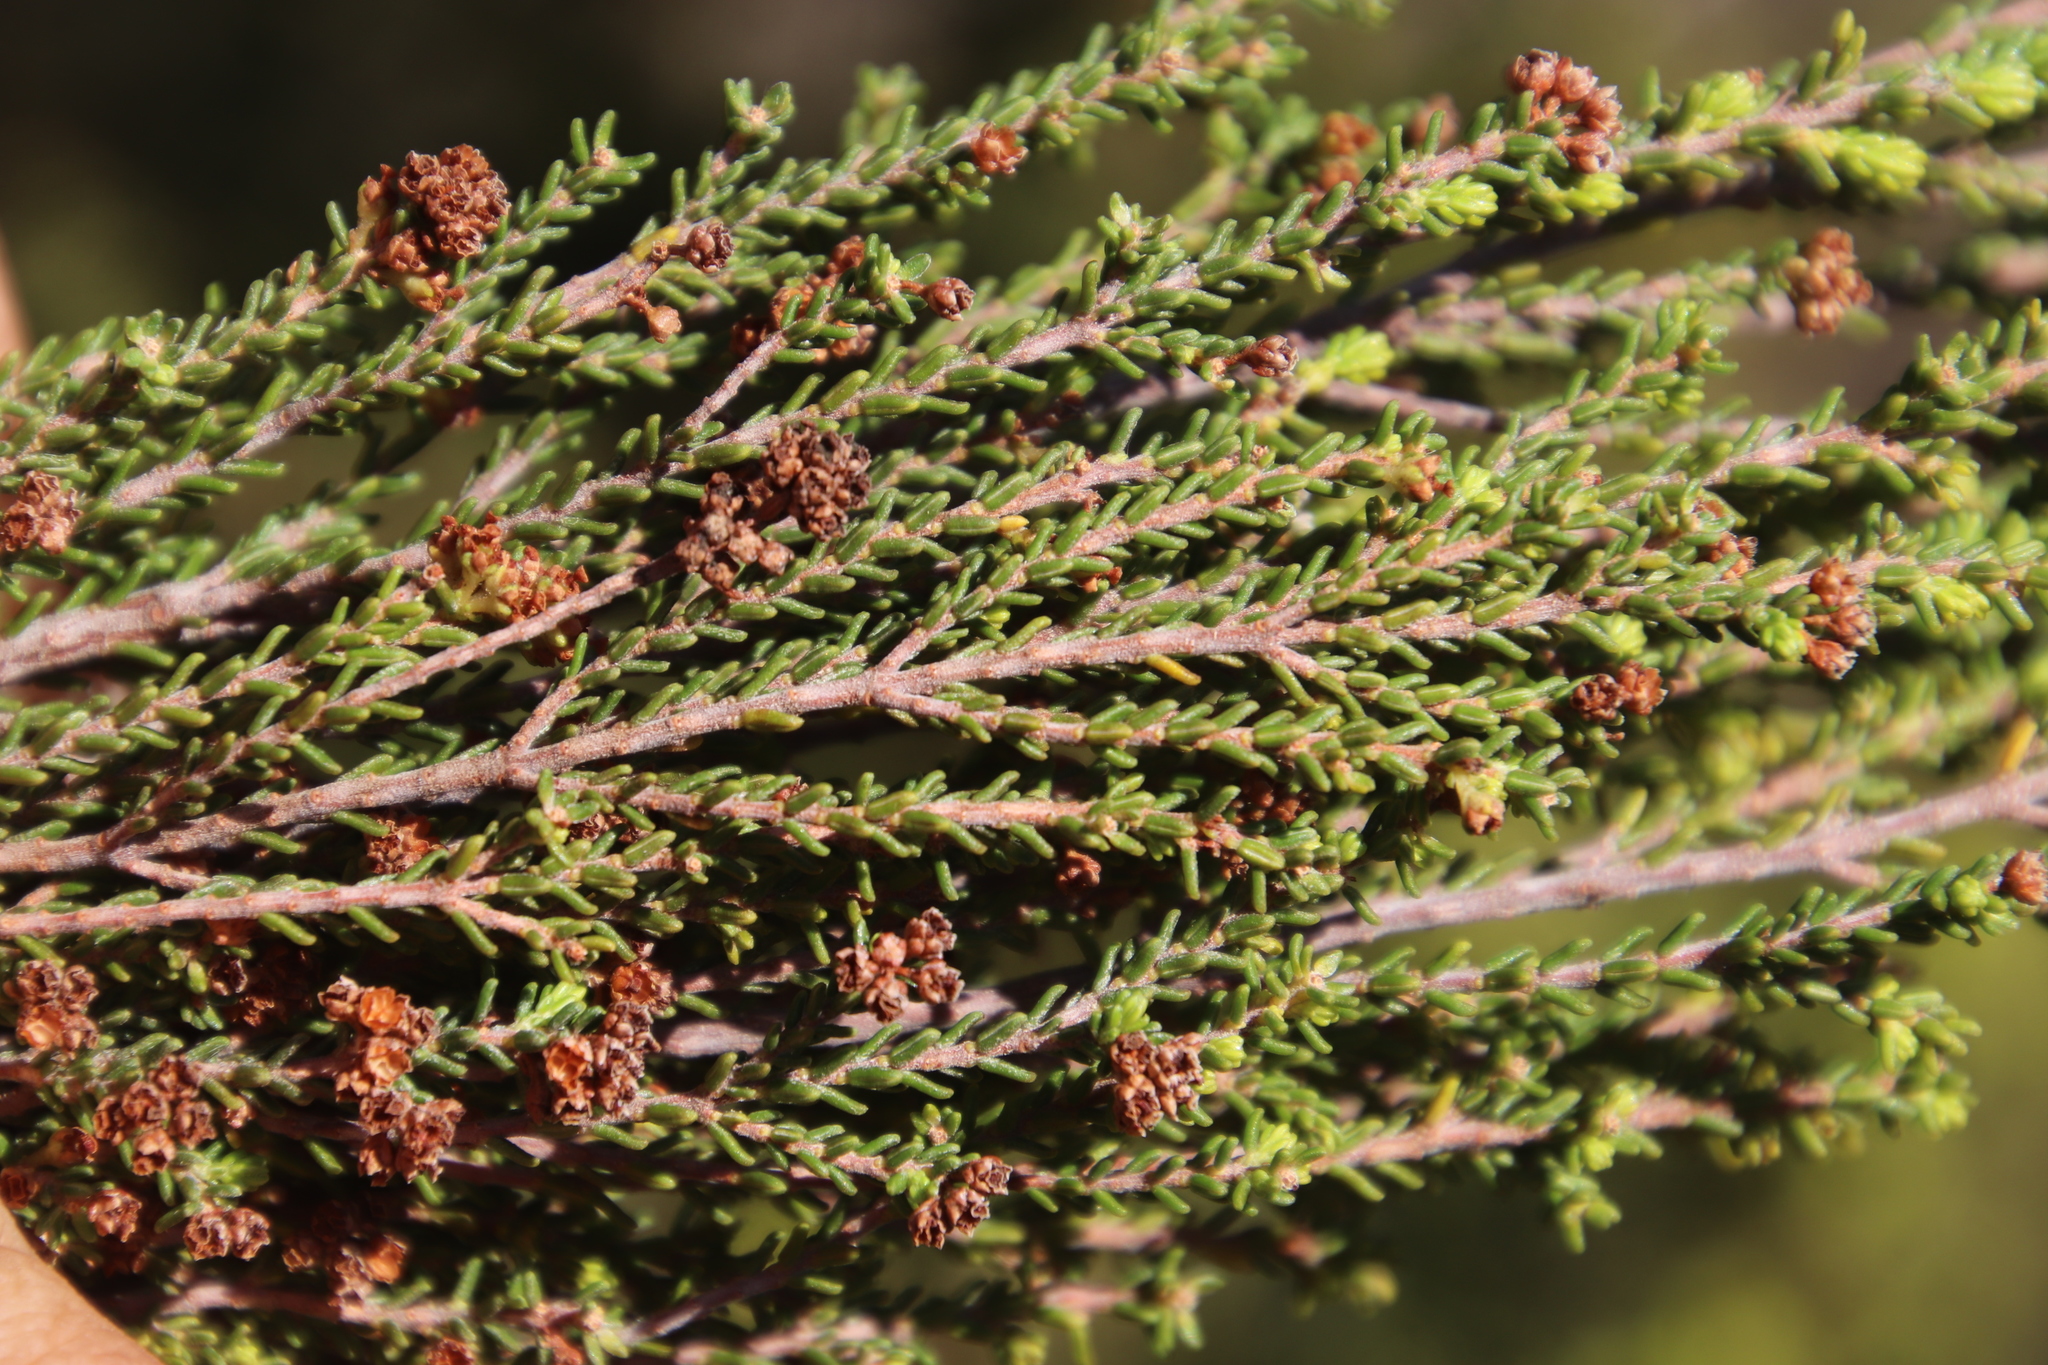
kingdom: Plantae
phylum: Tracheophyta
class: Magnoliopsida
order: Ericales
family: Ericaceae
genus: Erica
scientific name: Erica tristis
